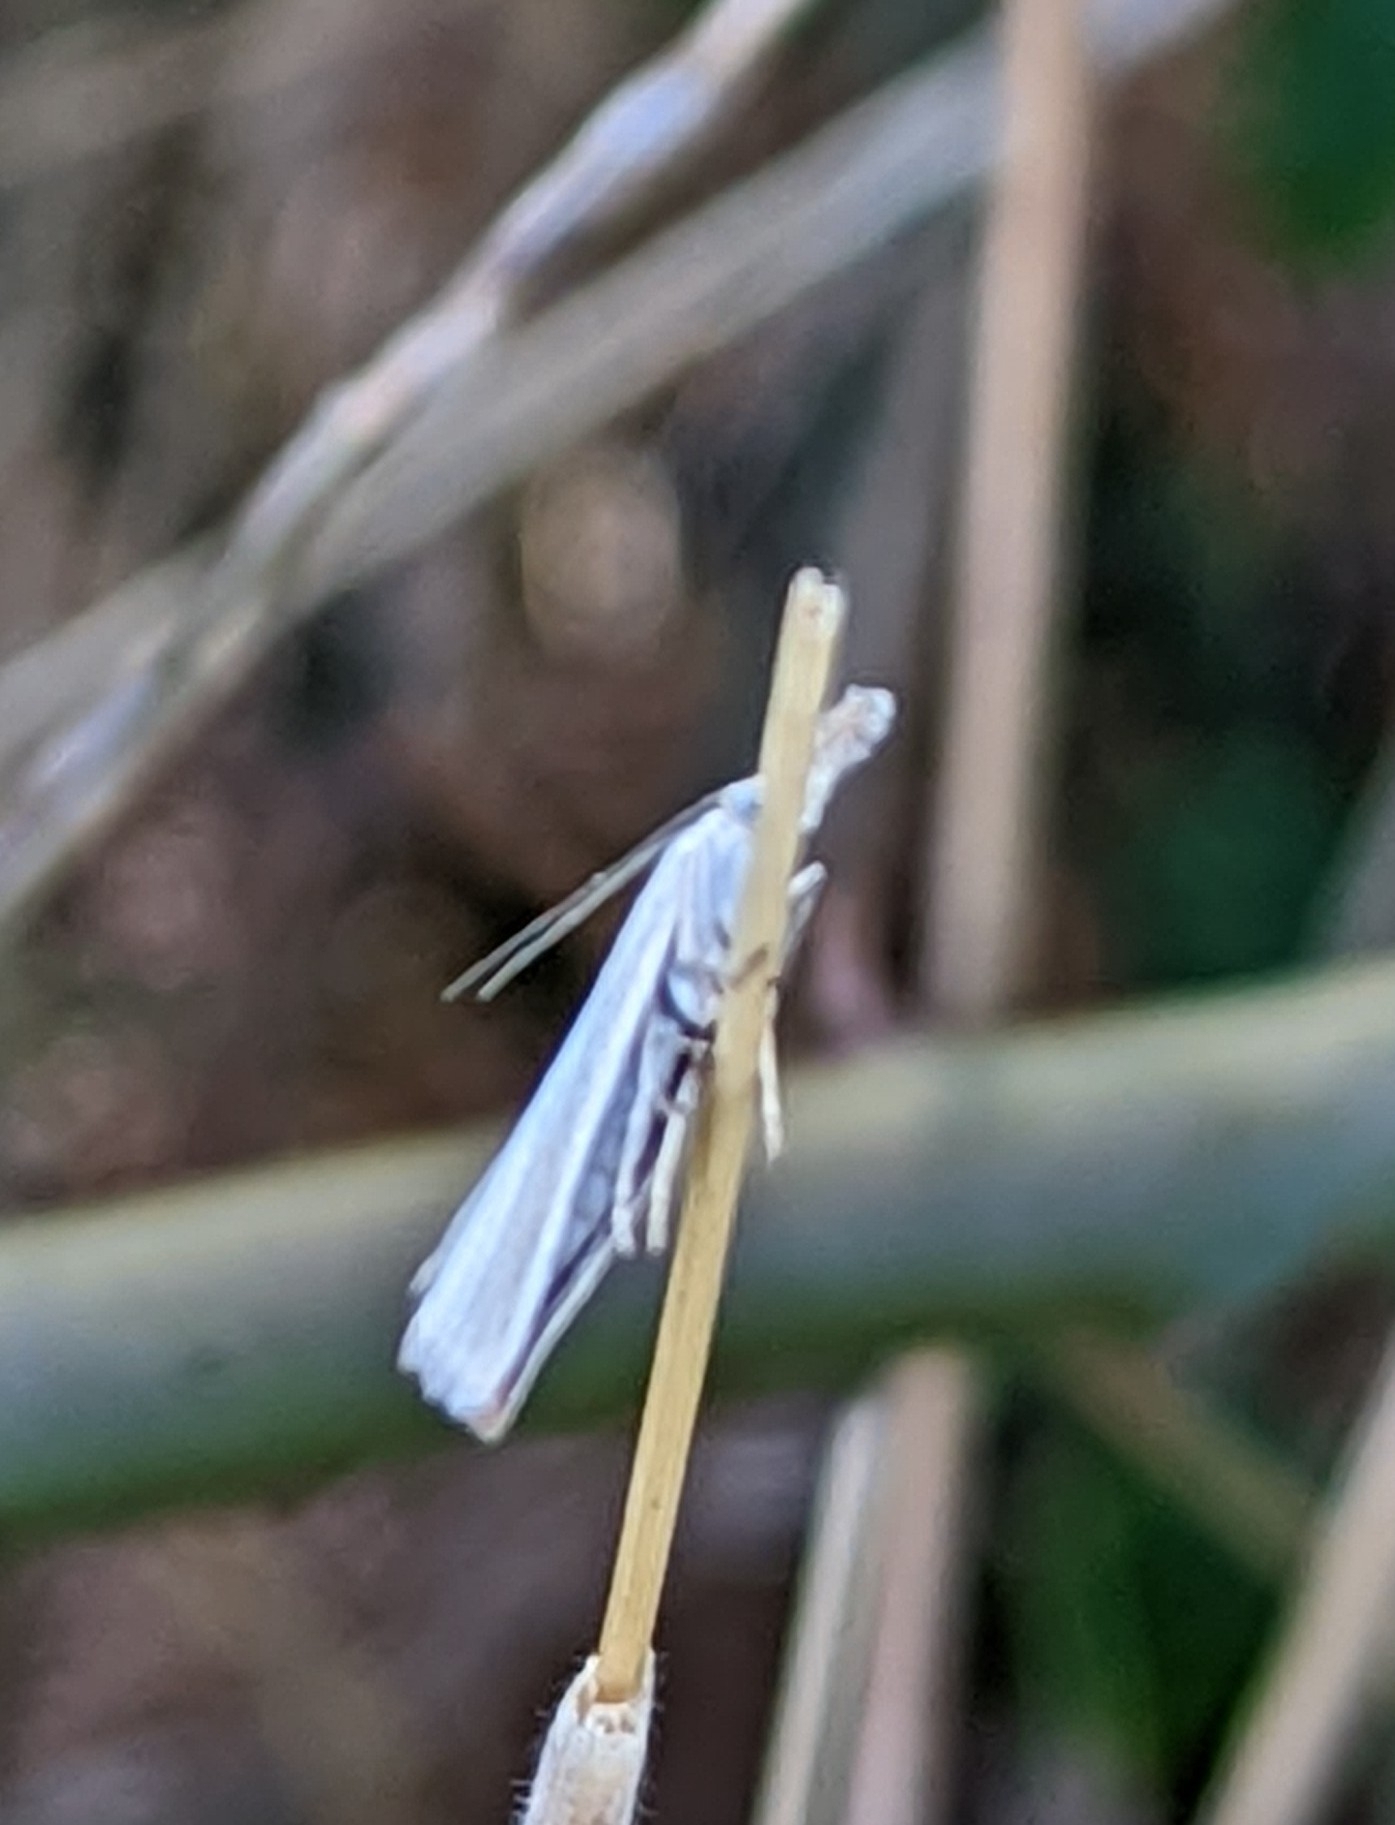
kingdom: Animalia
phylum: Arthropoda
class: Insecta
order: Lepidoptera
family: Crambidae
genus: Crambus
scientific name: Crambus perlellus
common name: Yellow satin veneer
